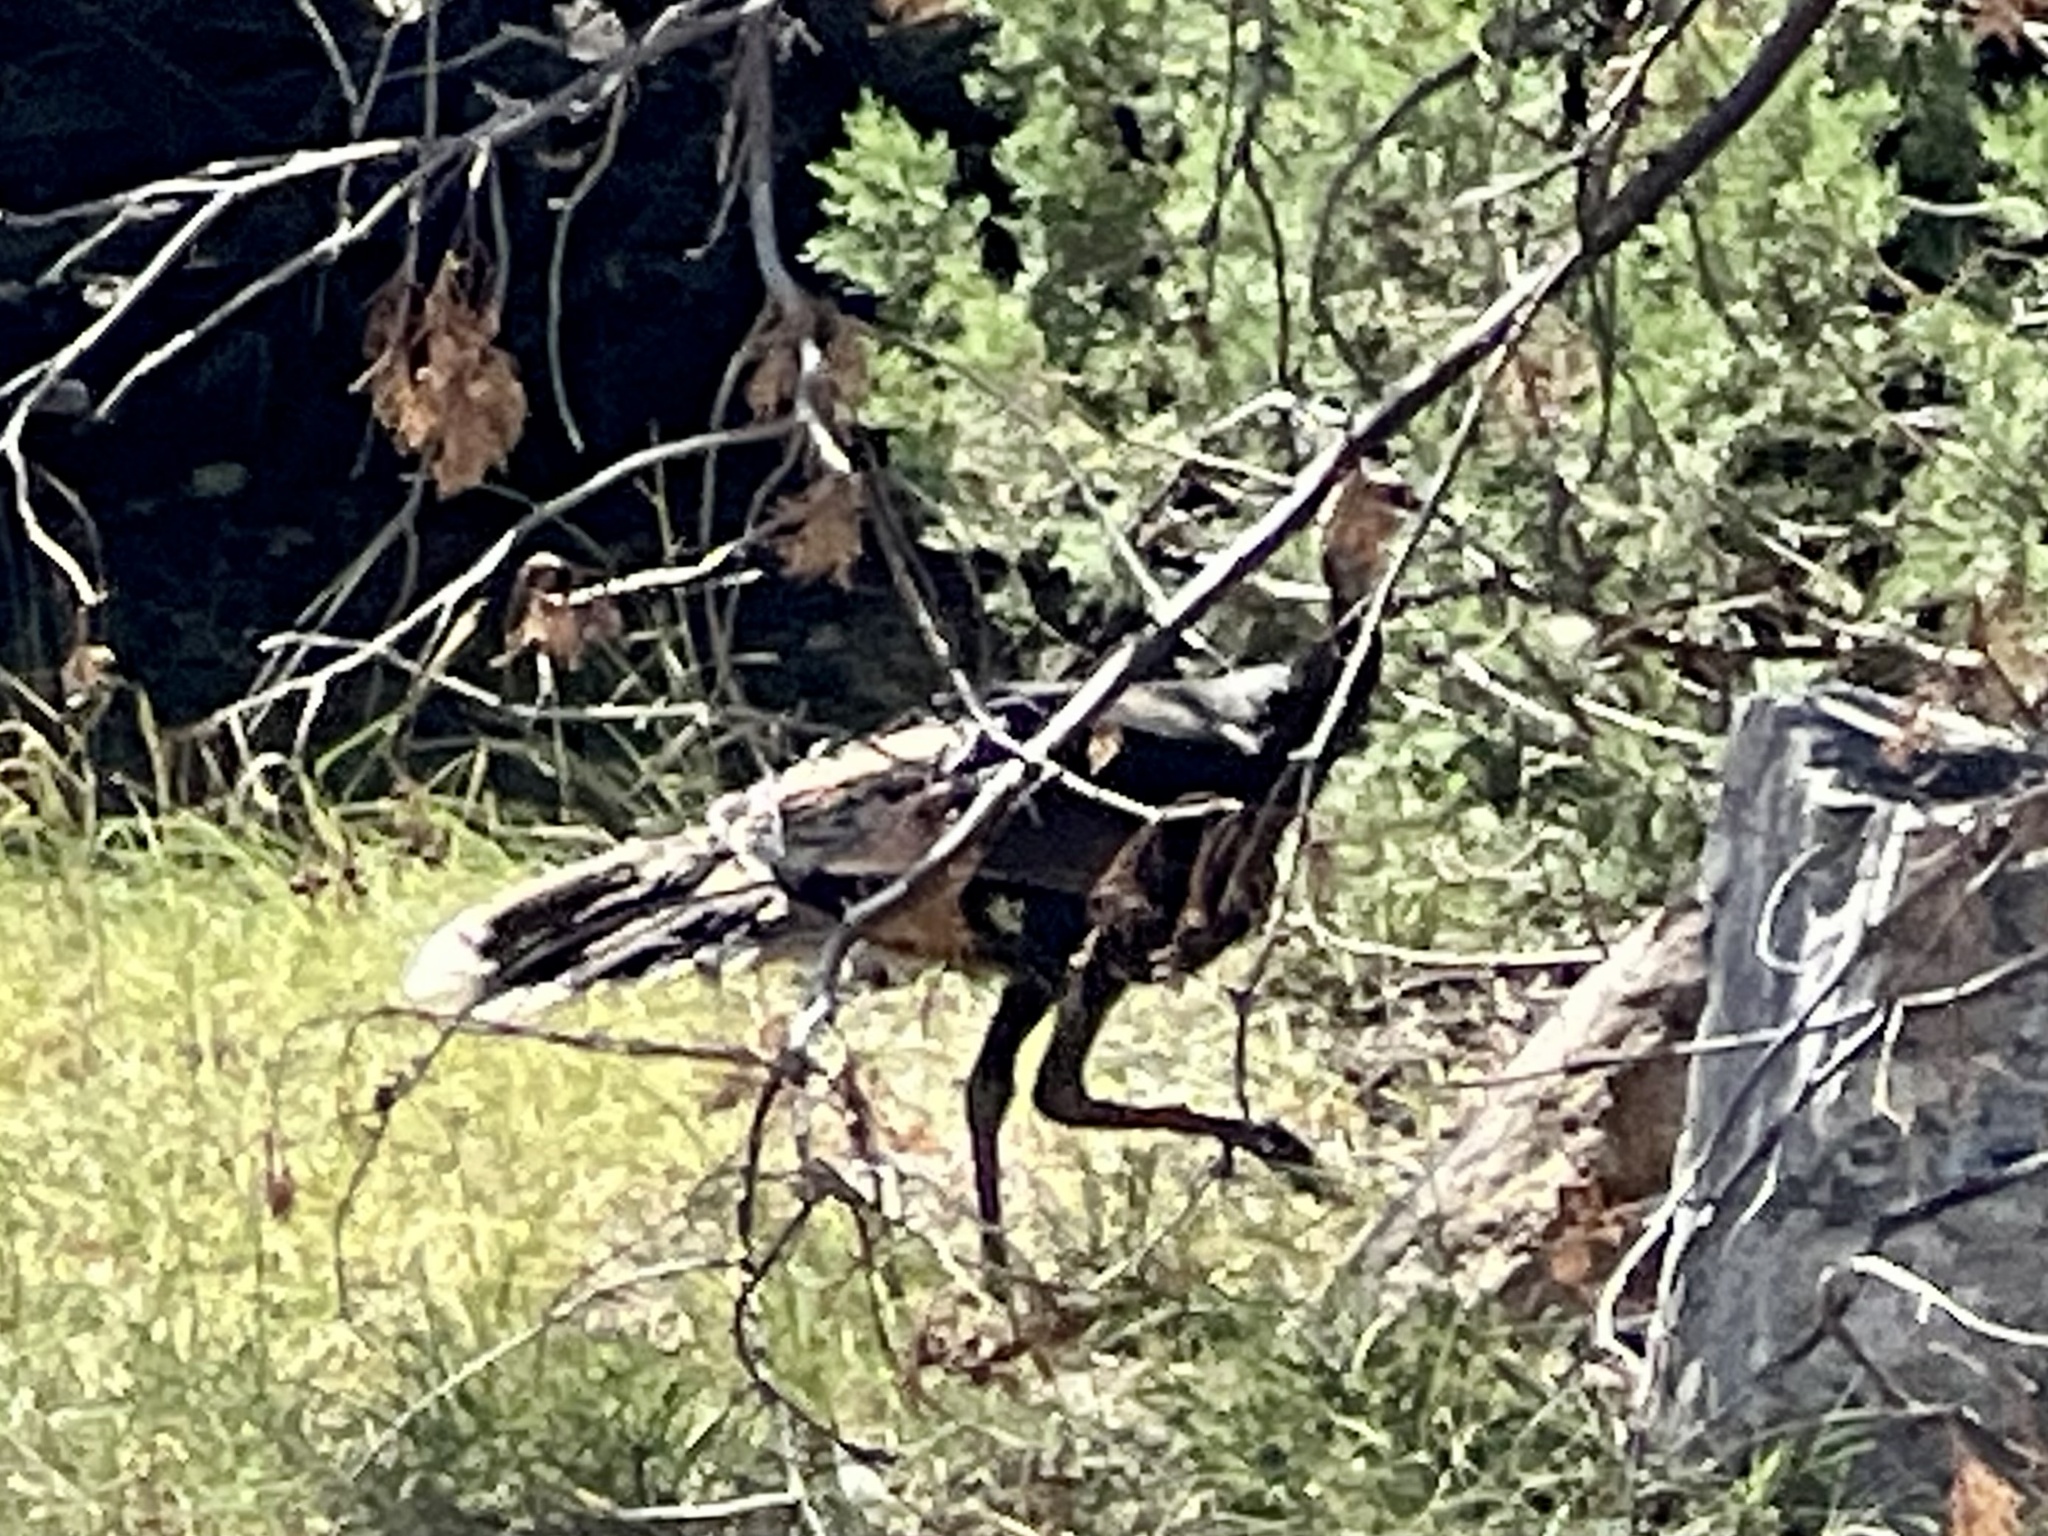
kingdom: Animalia
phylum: Chordata
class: Aves
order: Galliformes
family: Phasianidae
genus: Meleagris
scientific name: Meleagris gallopavo
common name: Wild turkey
